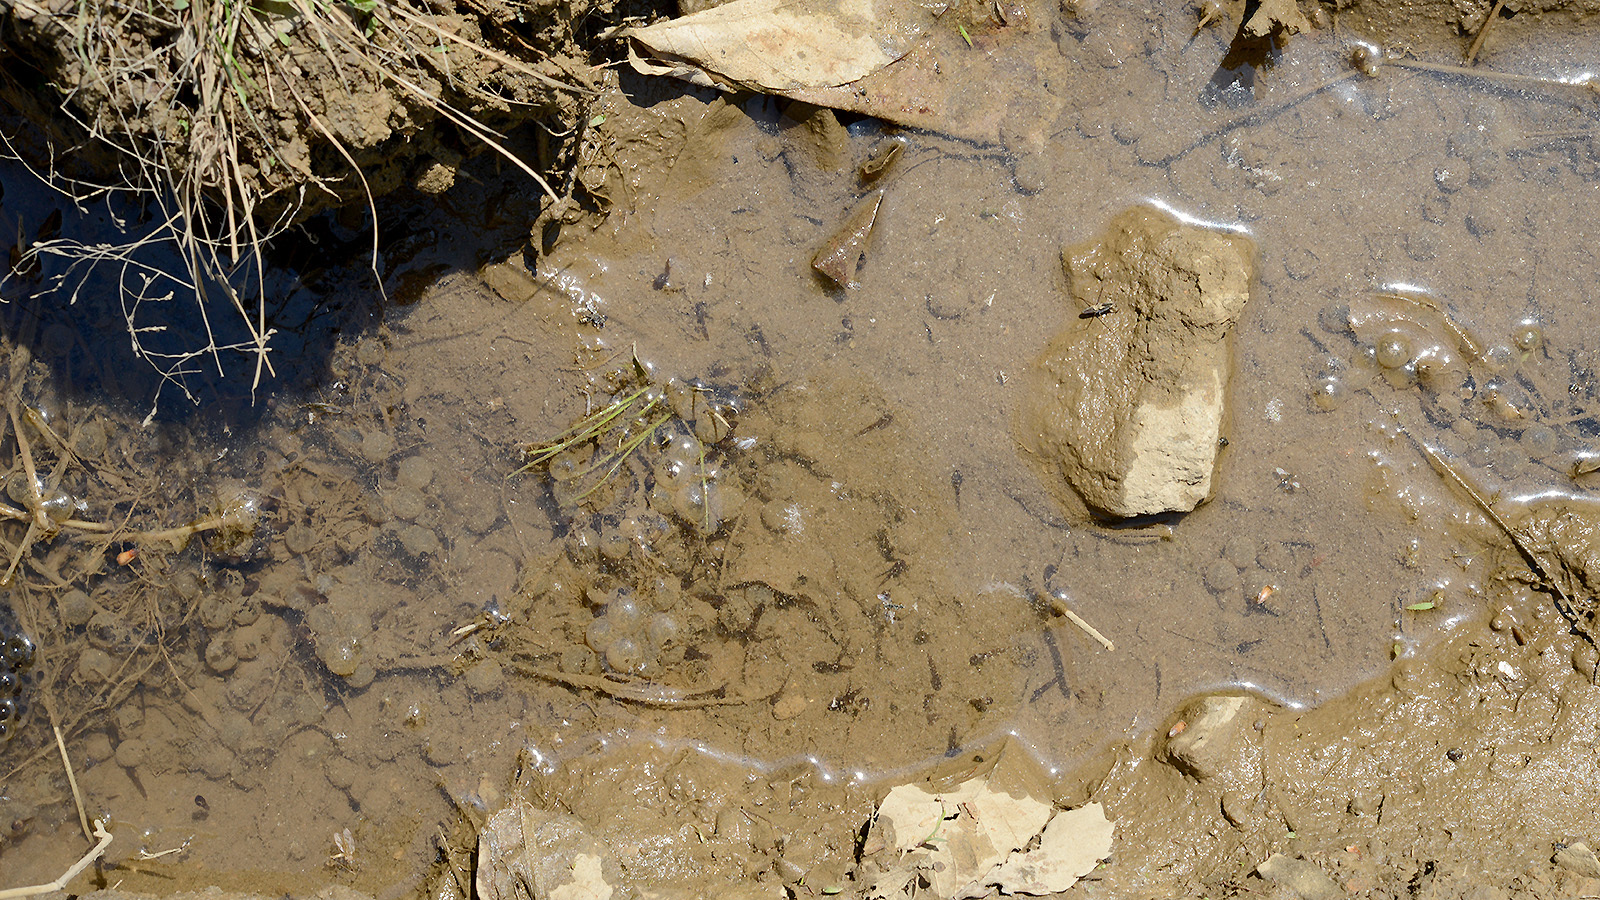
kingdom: Animalia
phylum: Chordata
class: Amphibia
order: Anura
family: Bombinatoridae
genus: Bombina
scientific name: Bombina orientalis
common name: Oriental firebelly toad
